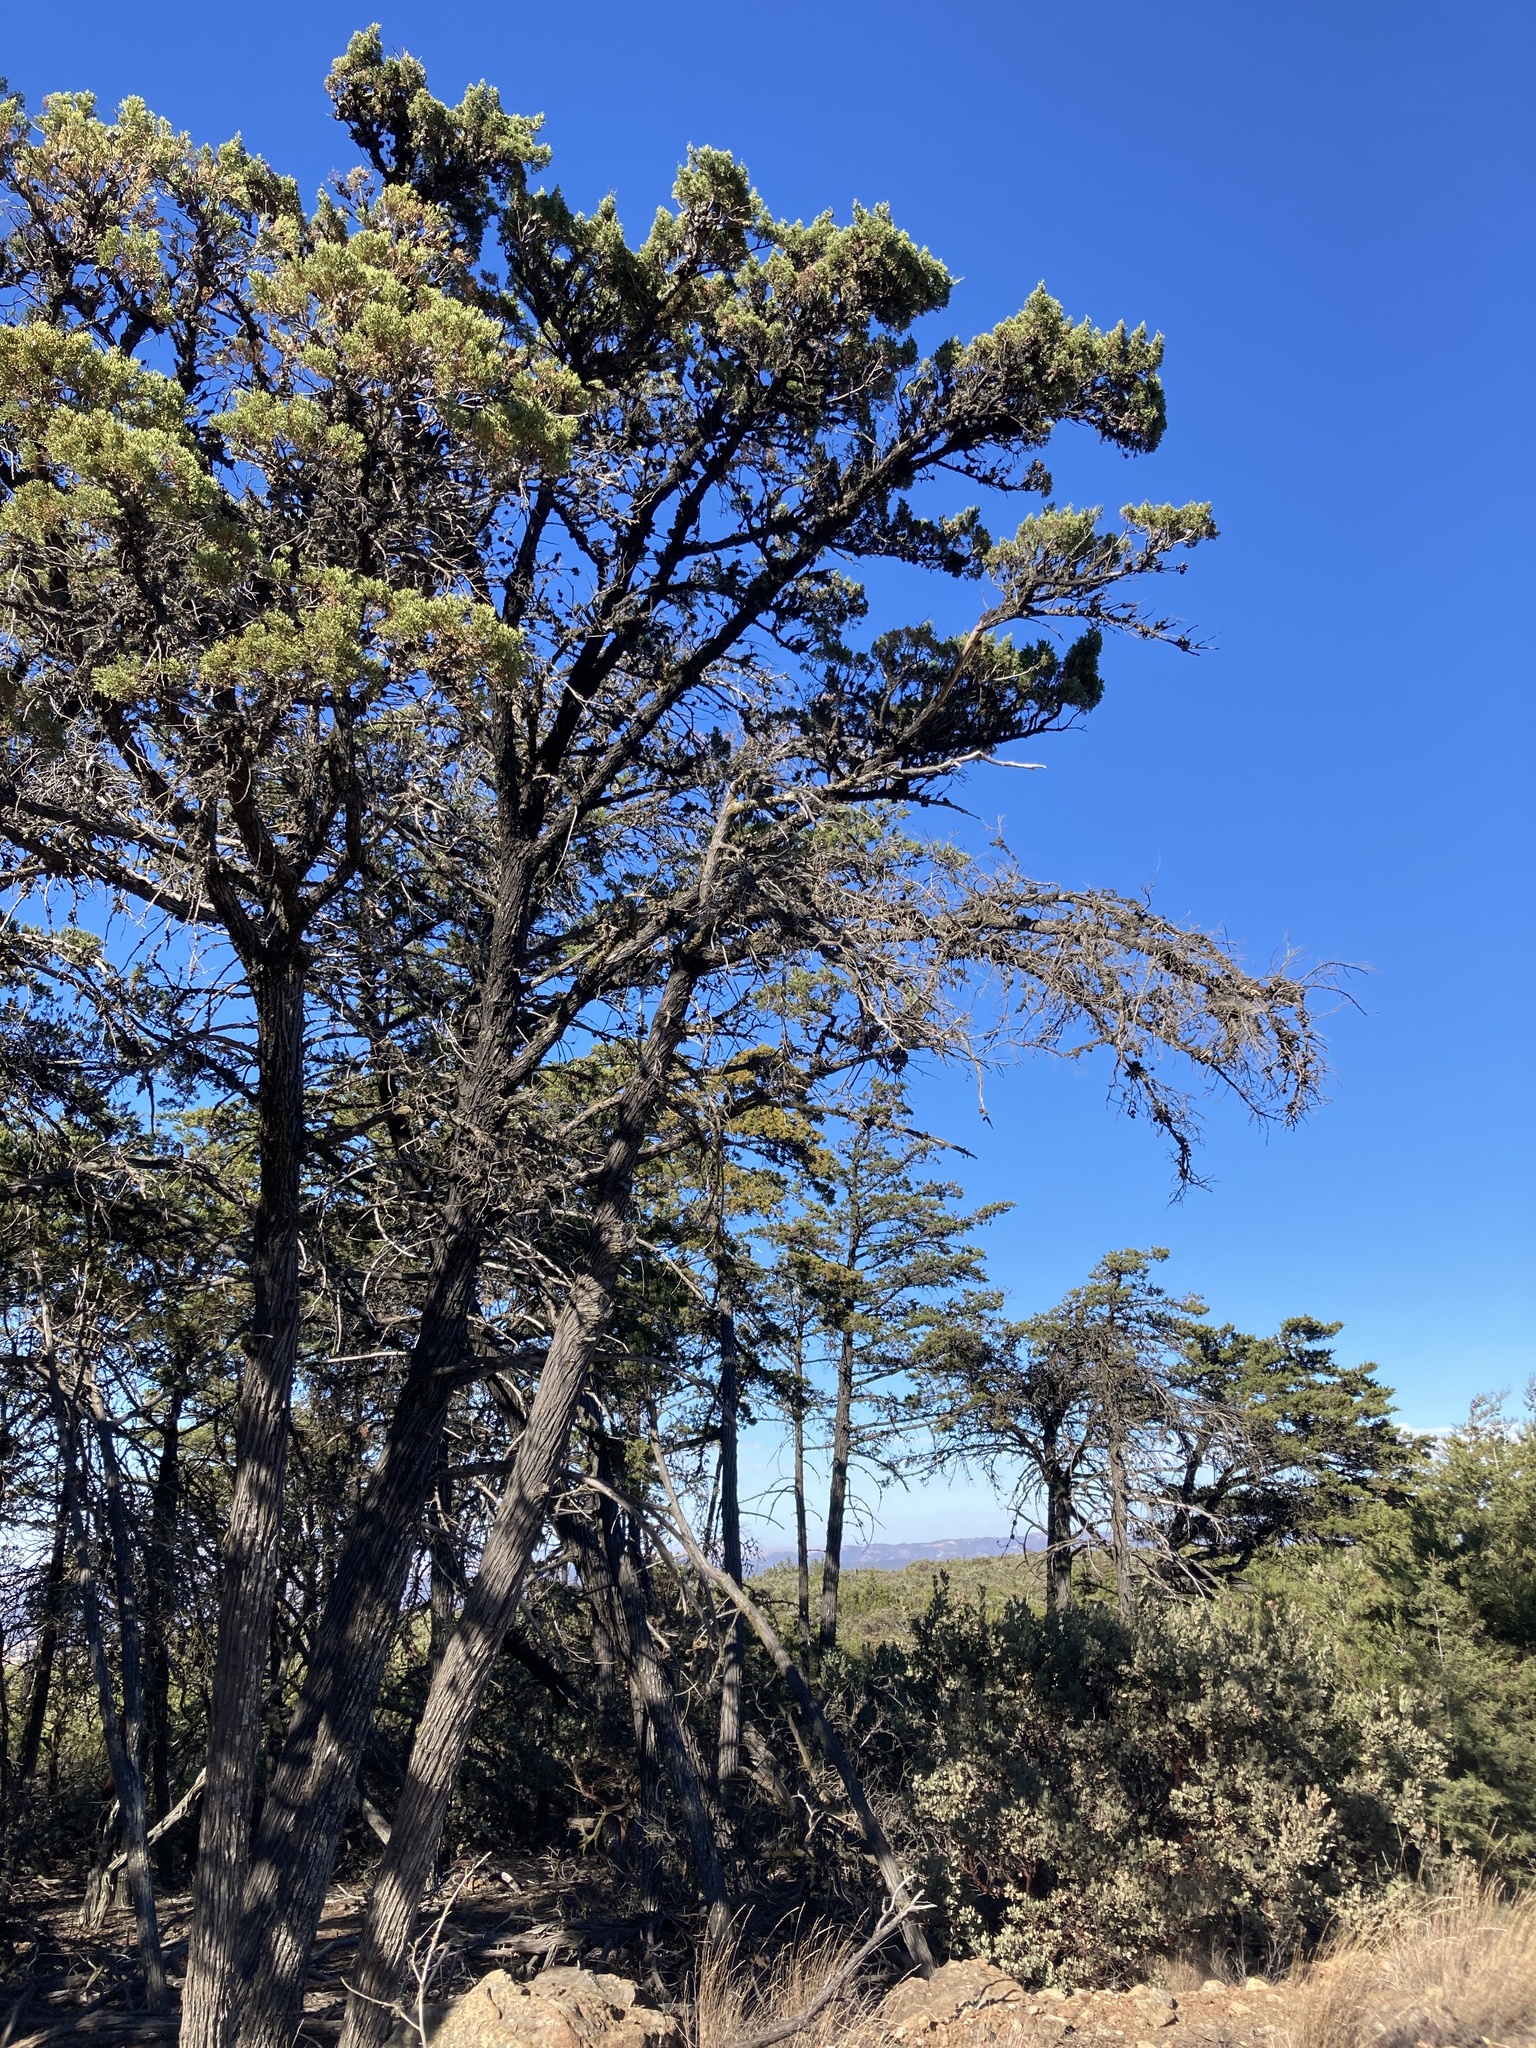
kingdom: Plantae
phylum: Tracheophyta
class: Pinopsida
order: Pinales
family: Cupressaceae
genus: Cupressus
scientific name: Cupressus sargentii
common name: Sargent cypress
